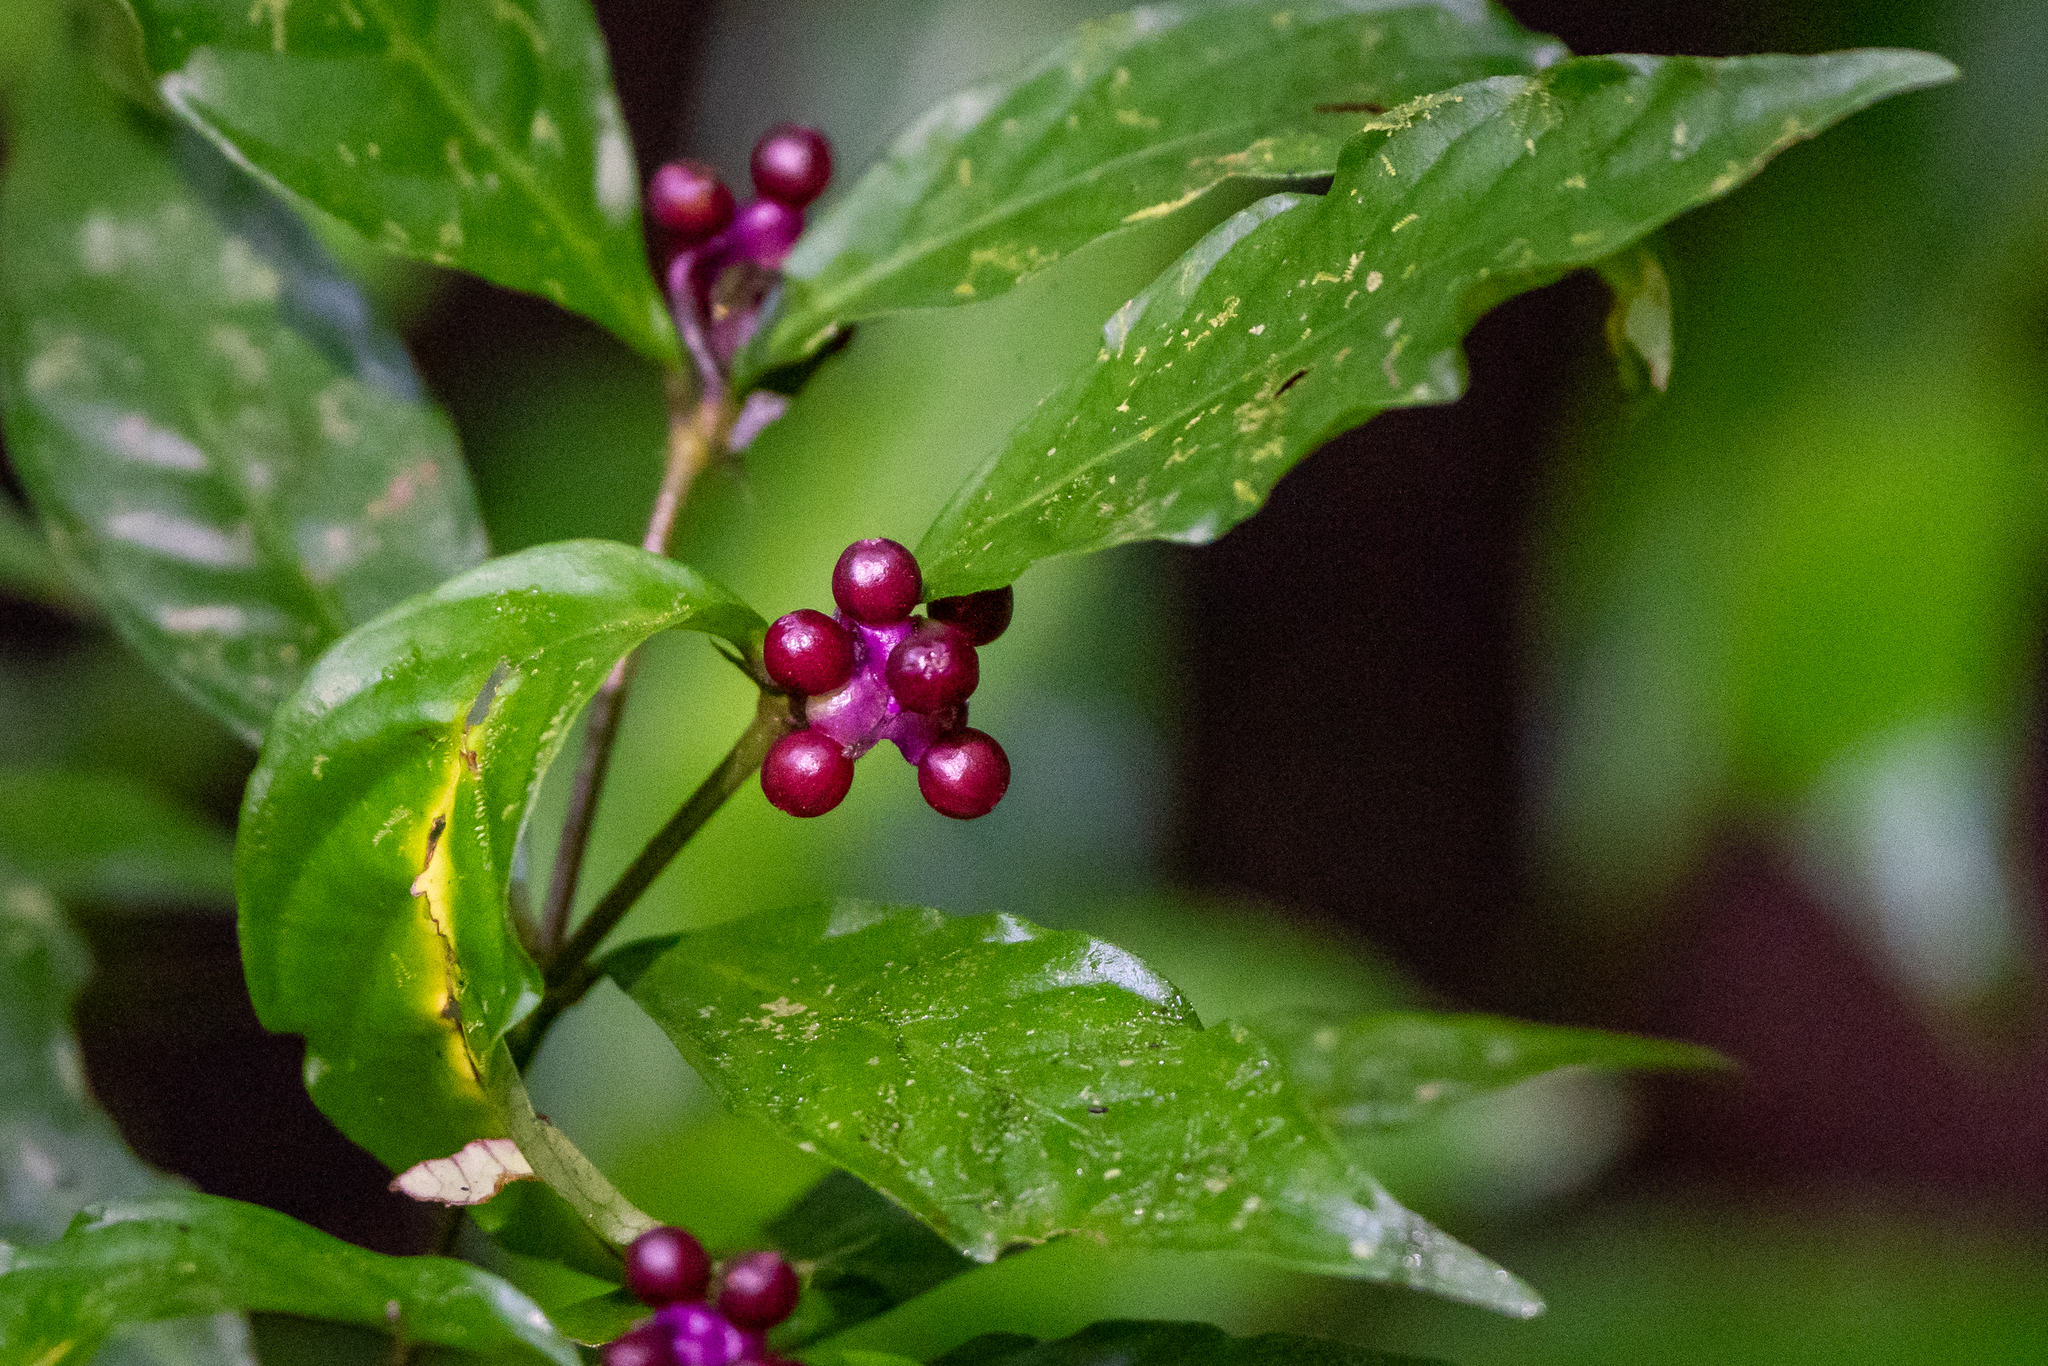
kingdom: Plantae
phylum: Tracheophyta
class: Magnoliopsida
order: Gentianales
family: Rubiaceae
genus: Palicourea
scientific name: Palicourea hoffmannseggiana
